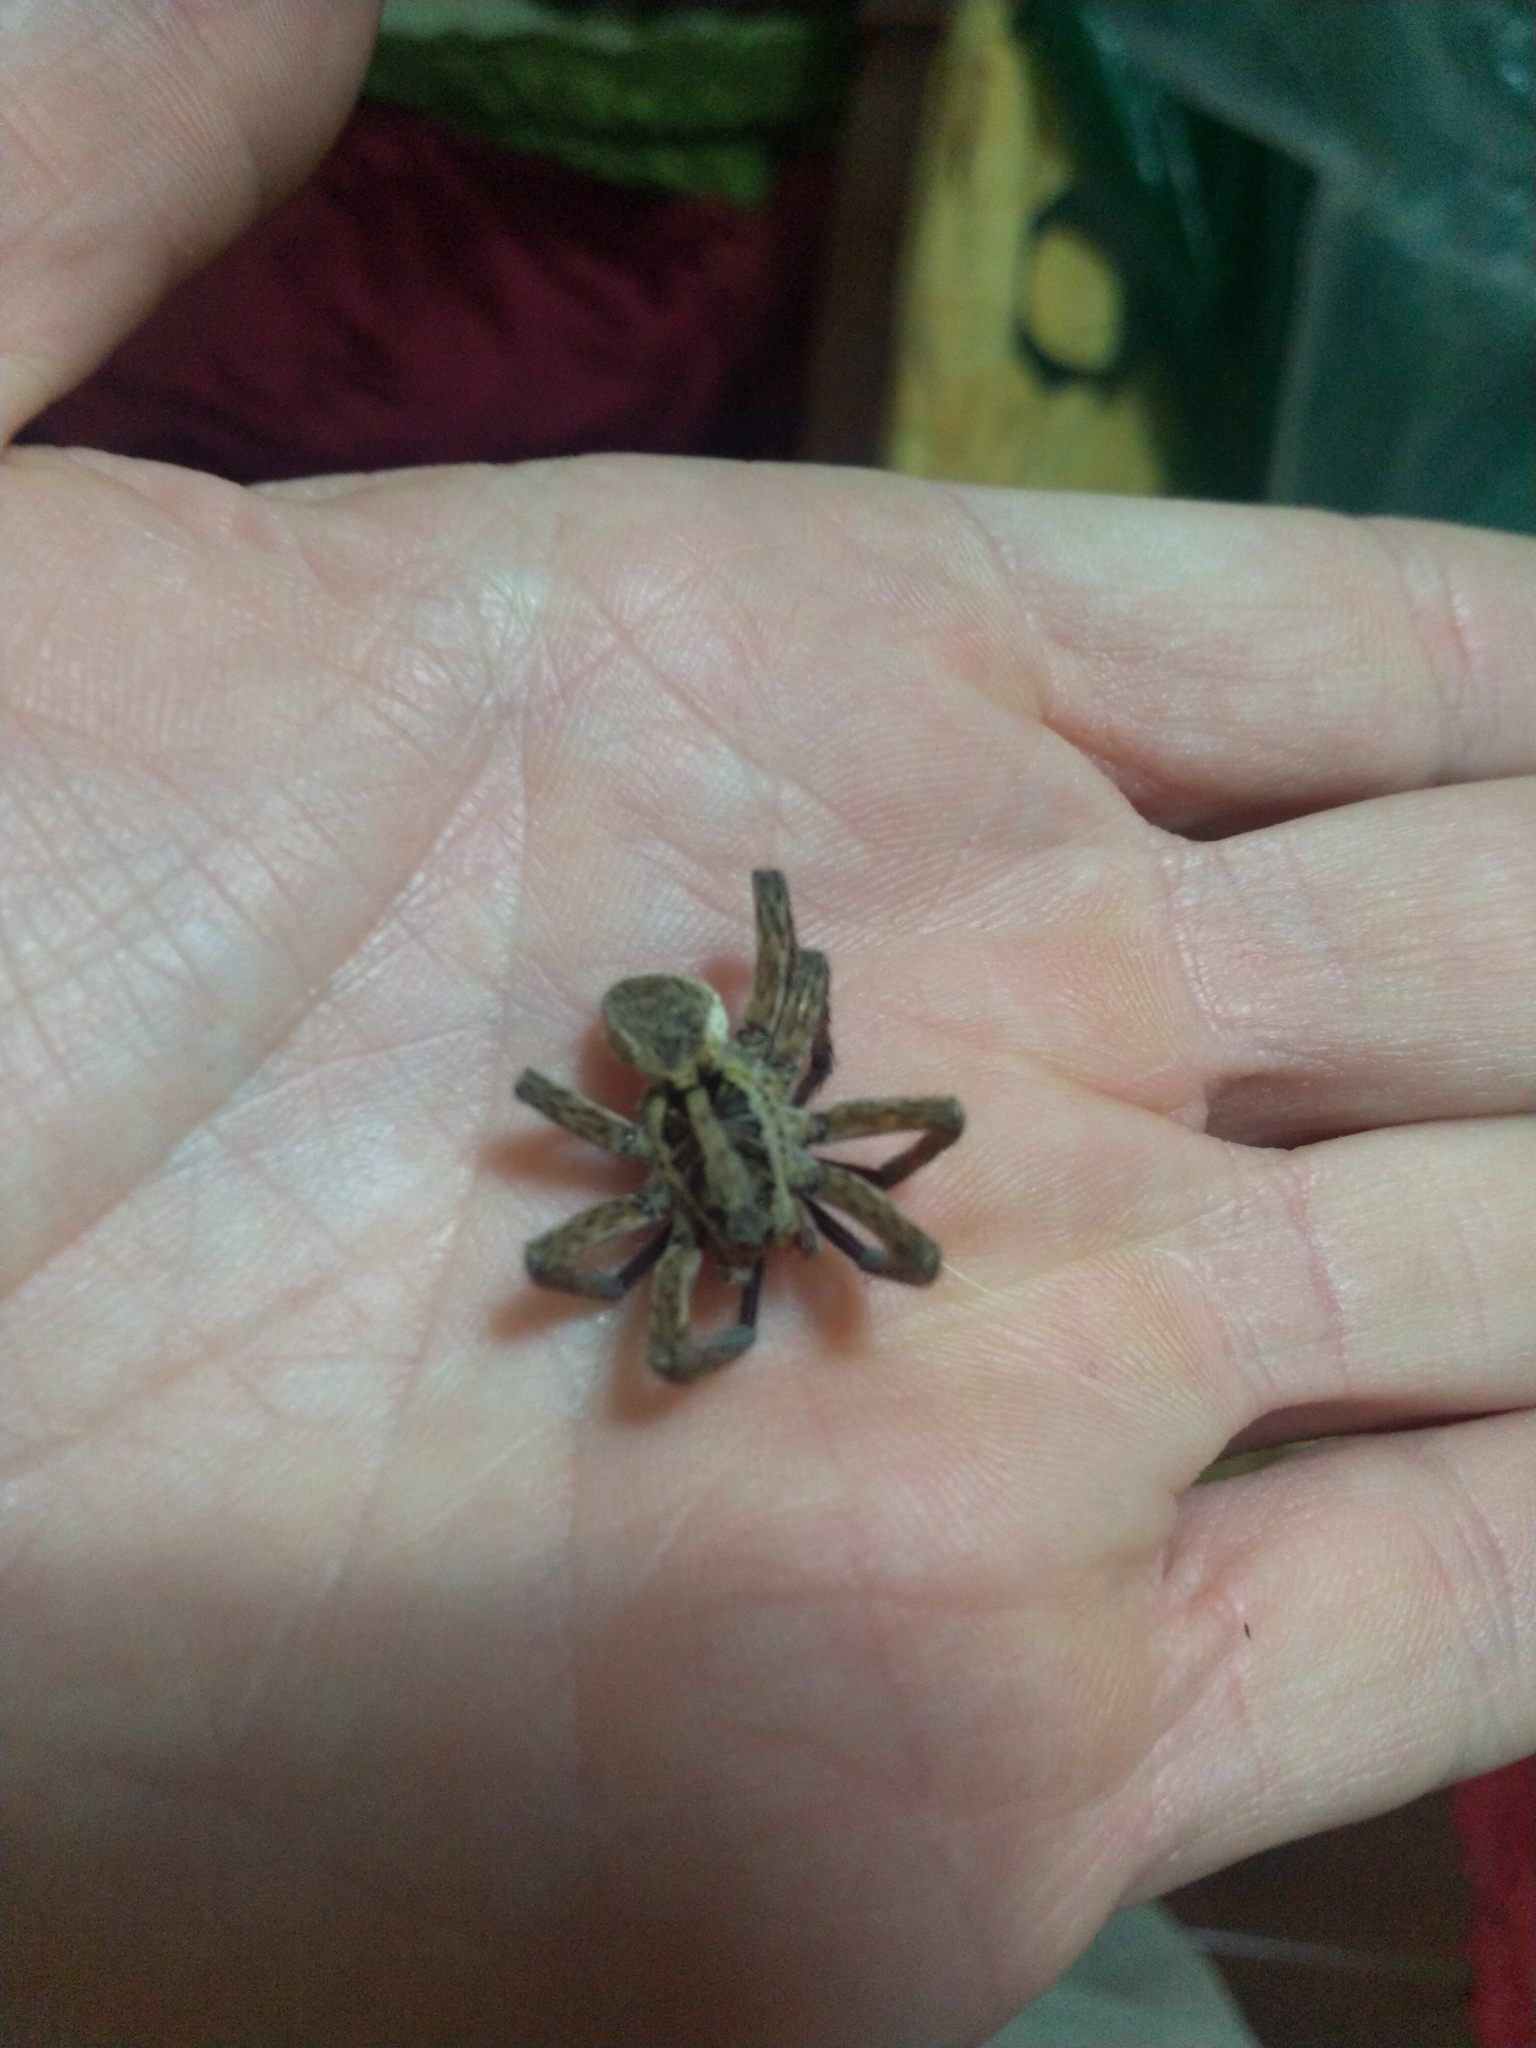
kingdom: Animalia
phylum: Arthropoda
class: Arachnida
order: Araneae
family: Lycosidae
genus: Hogna
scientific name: Hogna radiata
